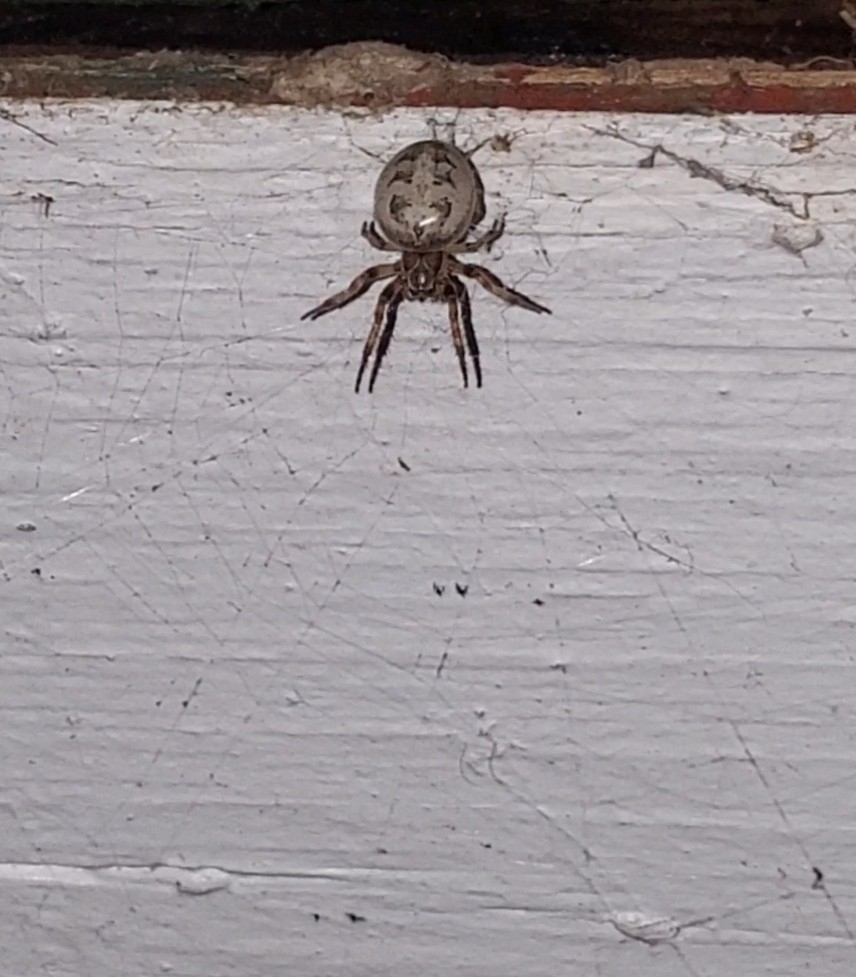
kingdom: Animalia
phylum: Arthropoda
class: Arachnida
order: Araneae
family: Araneidae
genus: Larinioides
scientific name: Larinioides cornutus
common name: Furrow orbweaver
